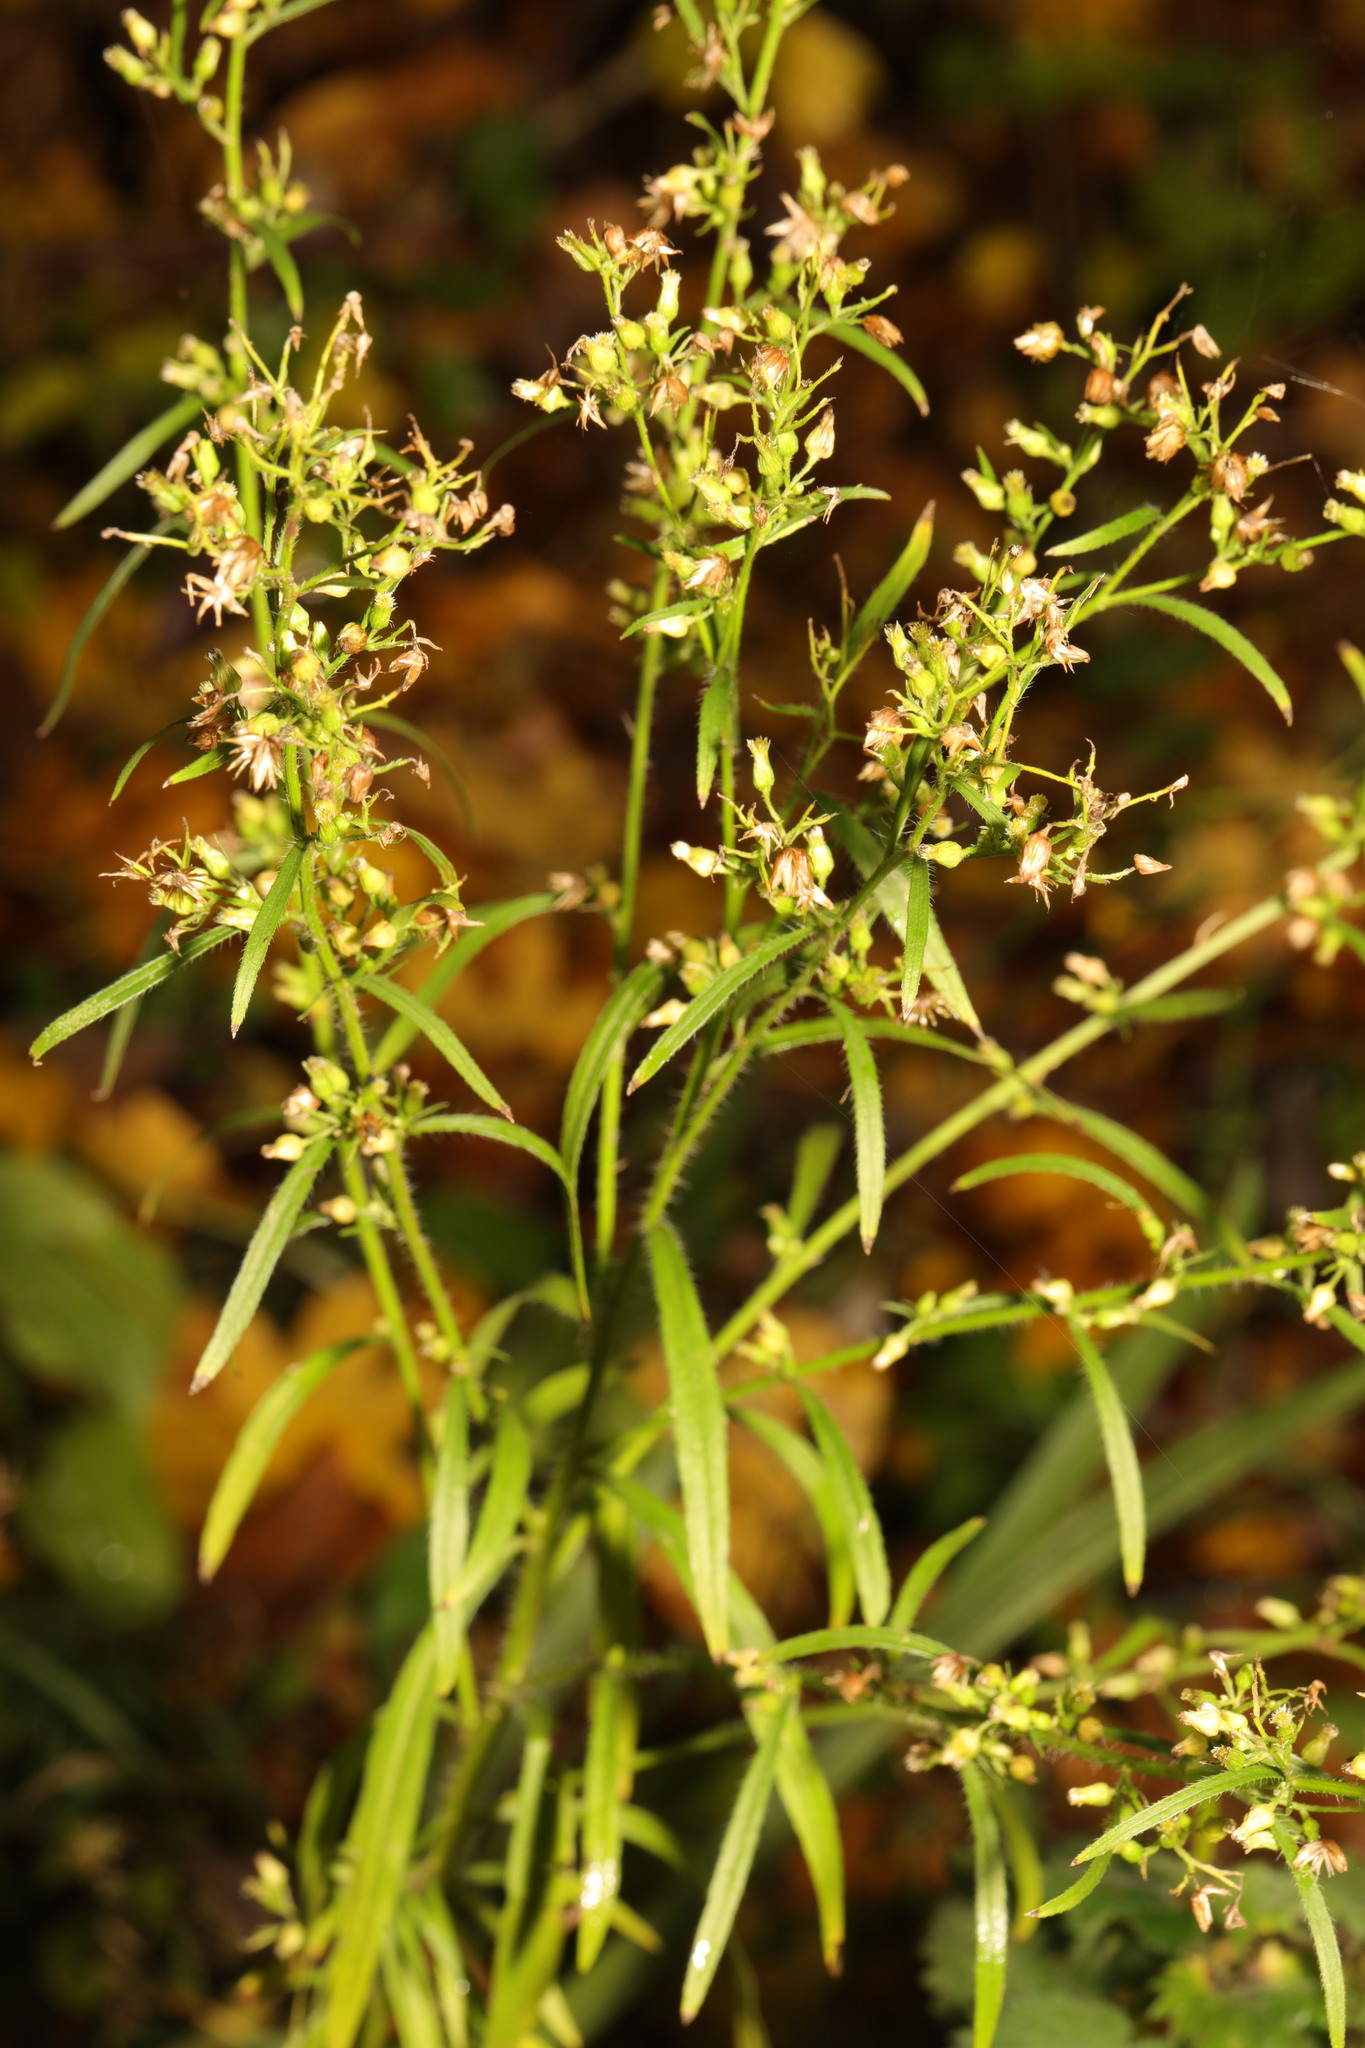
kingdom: Plantae
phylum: Tracheophyta
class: Magnoliopsida
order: Asterales
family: Asteraceae
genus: Erigeron
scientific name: Erigeron canadensis
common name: Canadian fleabane
